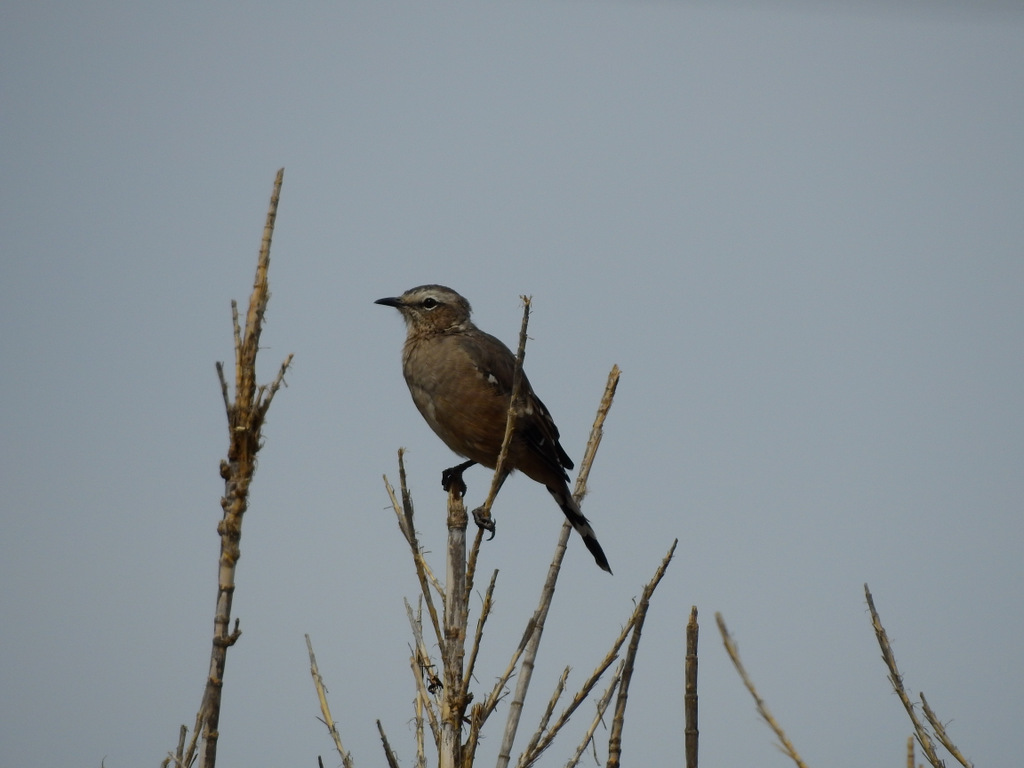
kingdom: Animalia
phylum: Chordata
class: Aves
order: Passeriformes
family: Mimidae
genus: Mimus
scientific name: Mimus patagonicus
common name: Patagonian mockingbird
